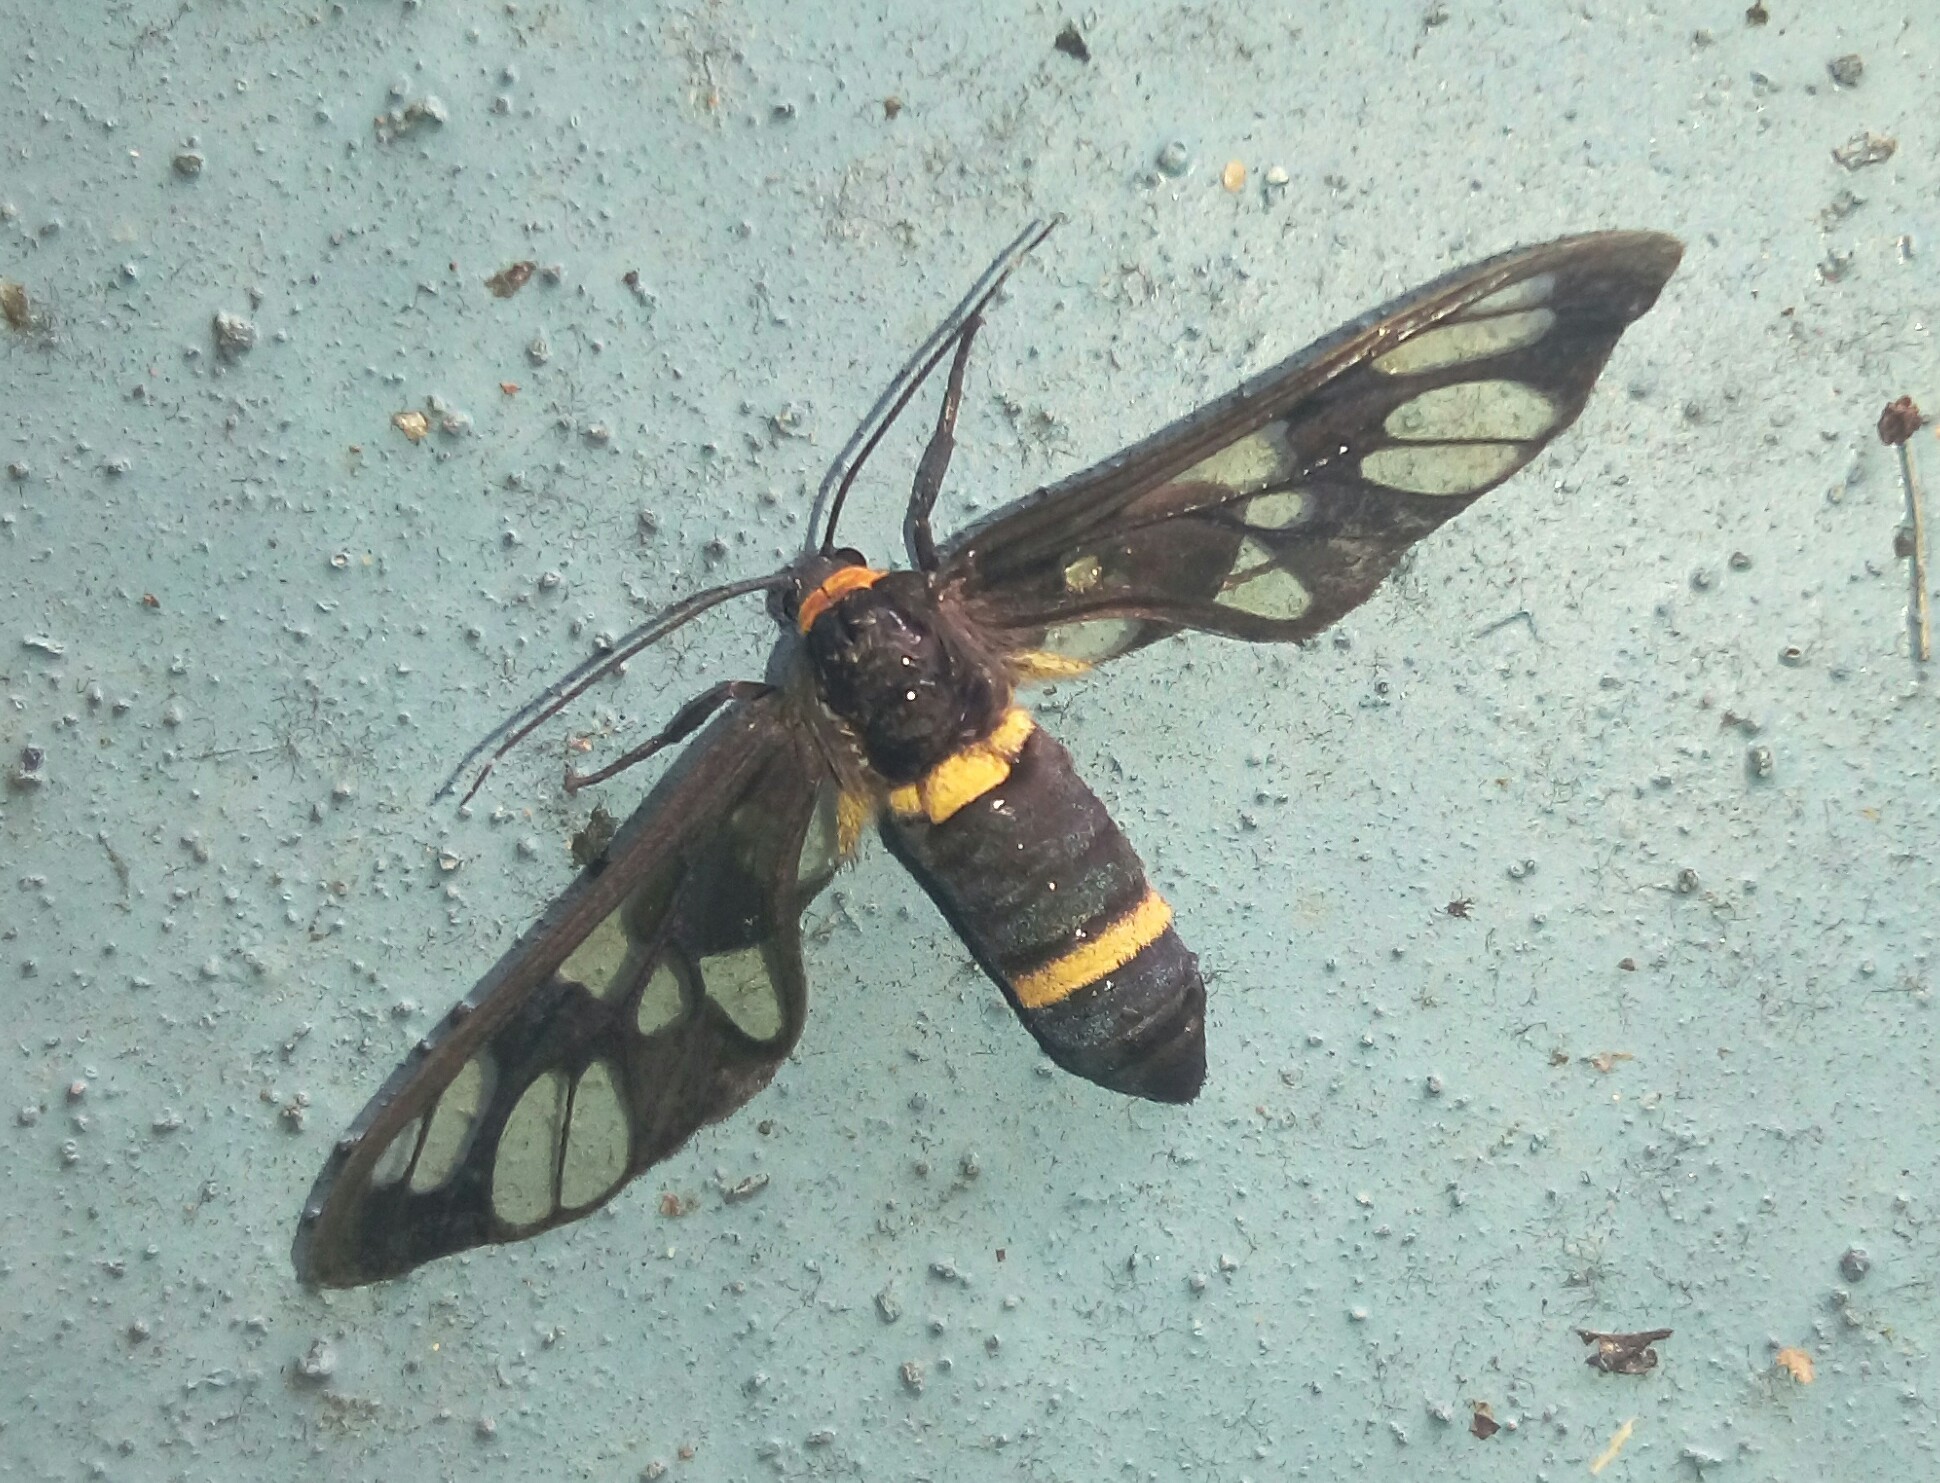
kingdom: Animalia
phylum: Arthropoda
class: Insecta
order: Lepidoptera
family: Erebidae
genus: Syntomoides
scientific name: Syntomoides imaon
